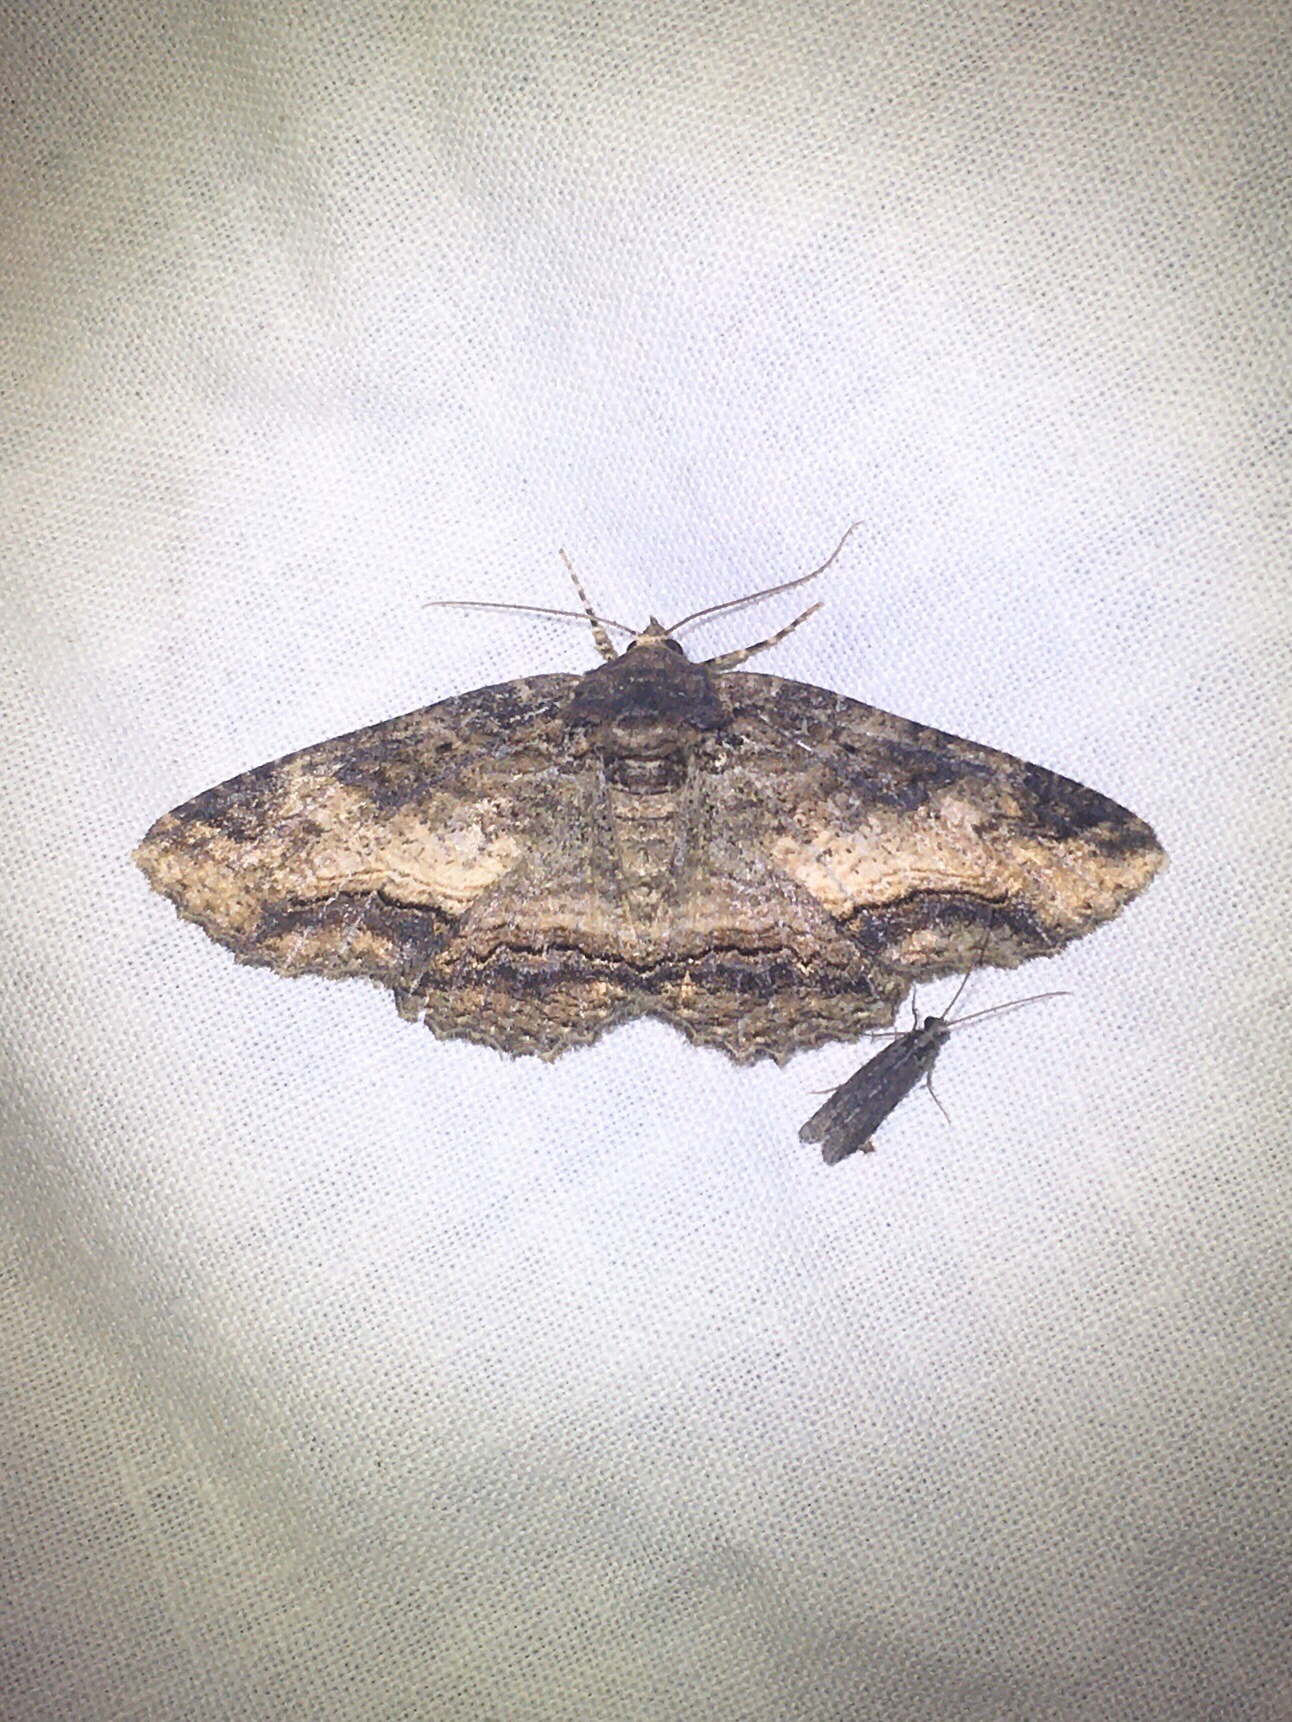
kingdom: Animalia
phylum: Arthropoda
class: Insecta
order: Lepidoptera
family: Erebidae
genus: Zale
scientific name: Zale minerea
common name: Colorful zale moth
